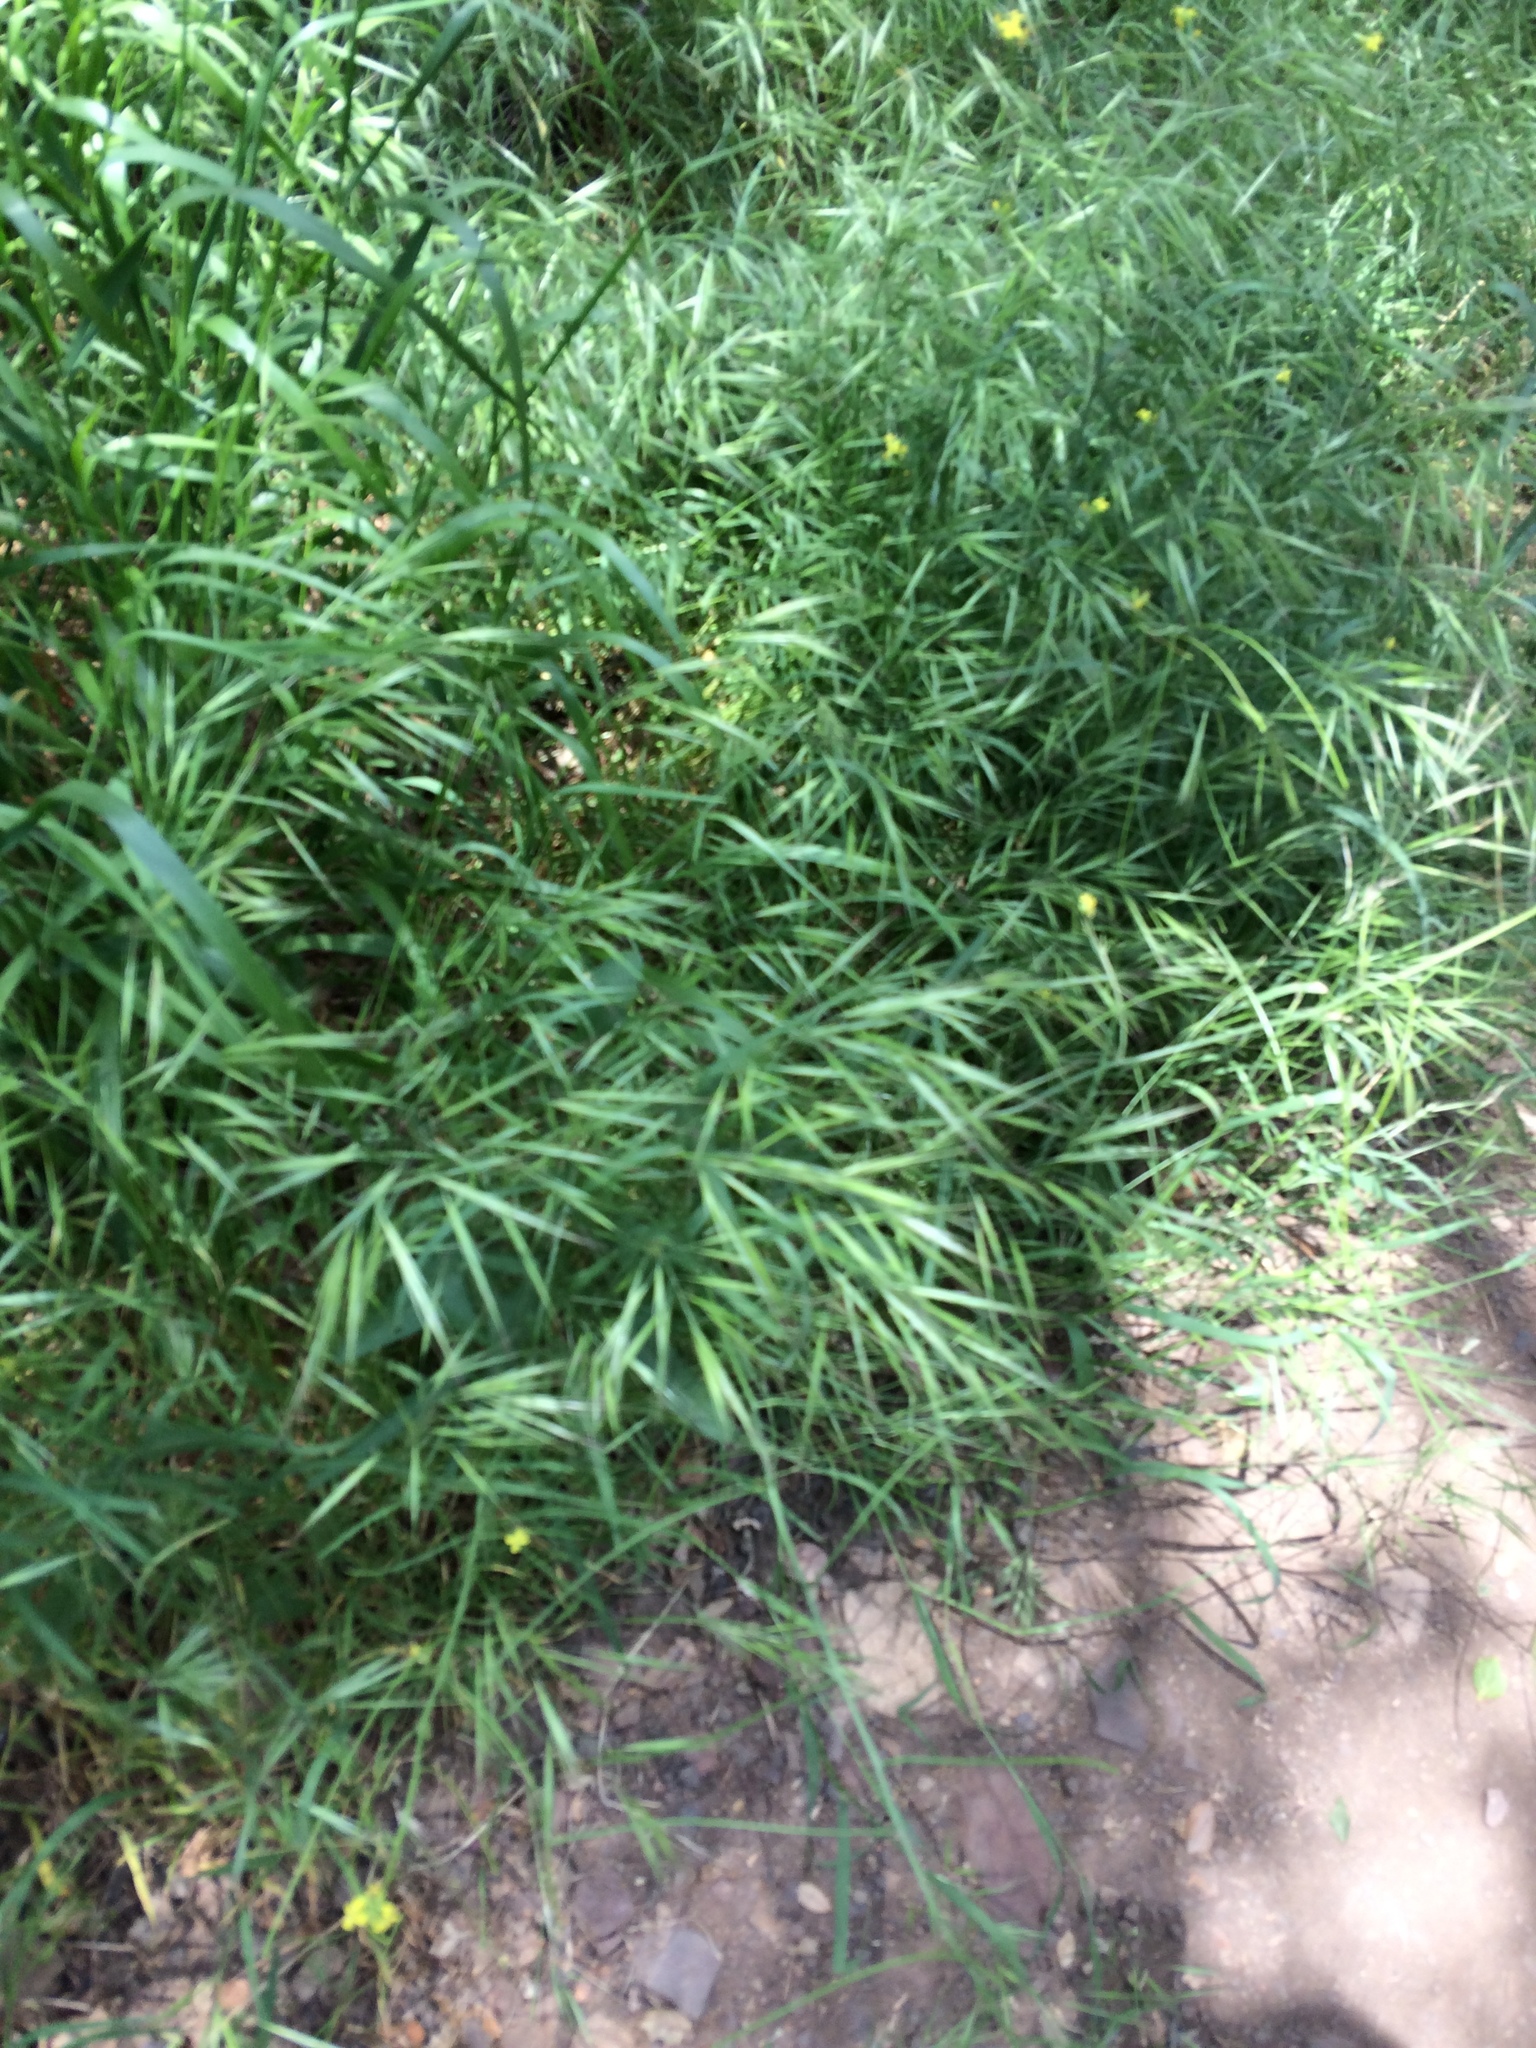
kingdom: Plantae
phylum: Tracheophyta
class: Liliopsida
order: Poales
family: Poaceae
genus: Bromus
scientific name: Bromus diandrus
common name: Ripgut brome
